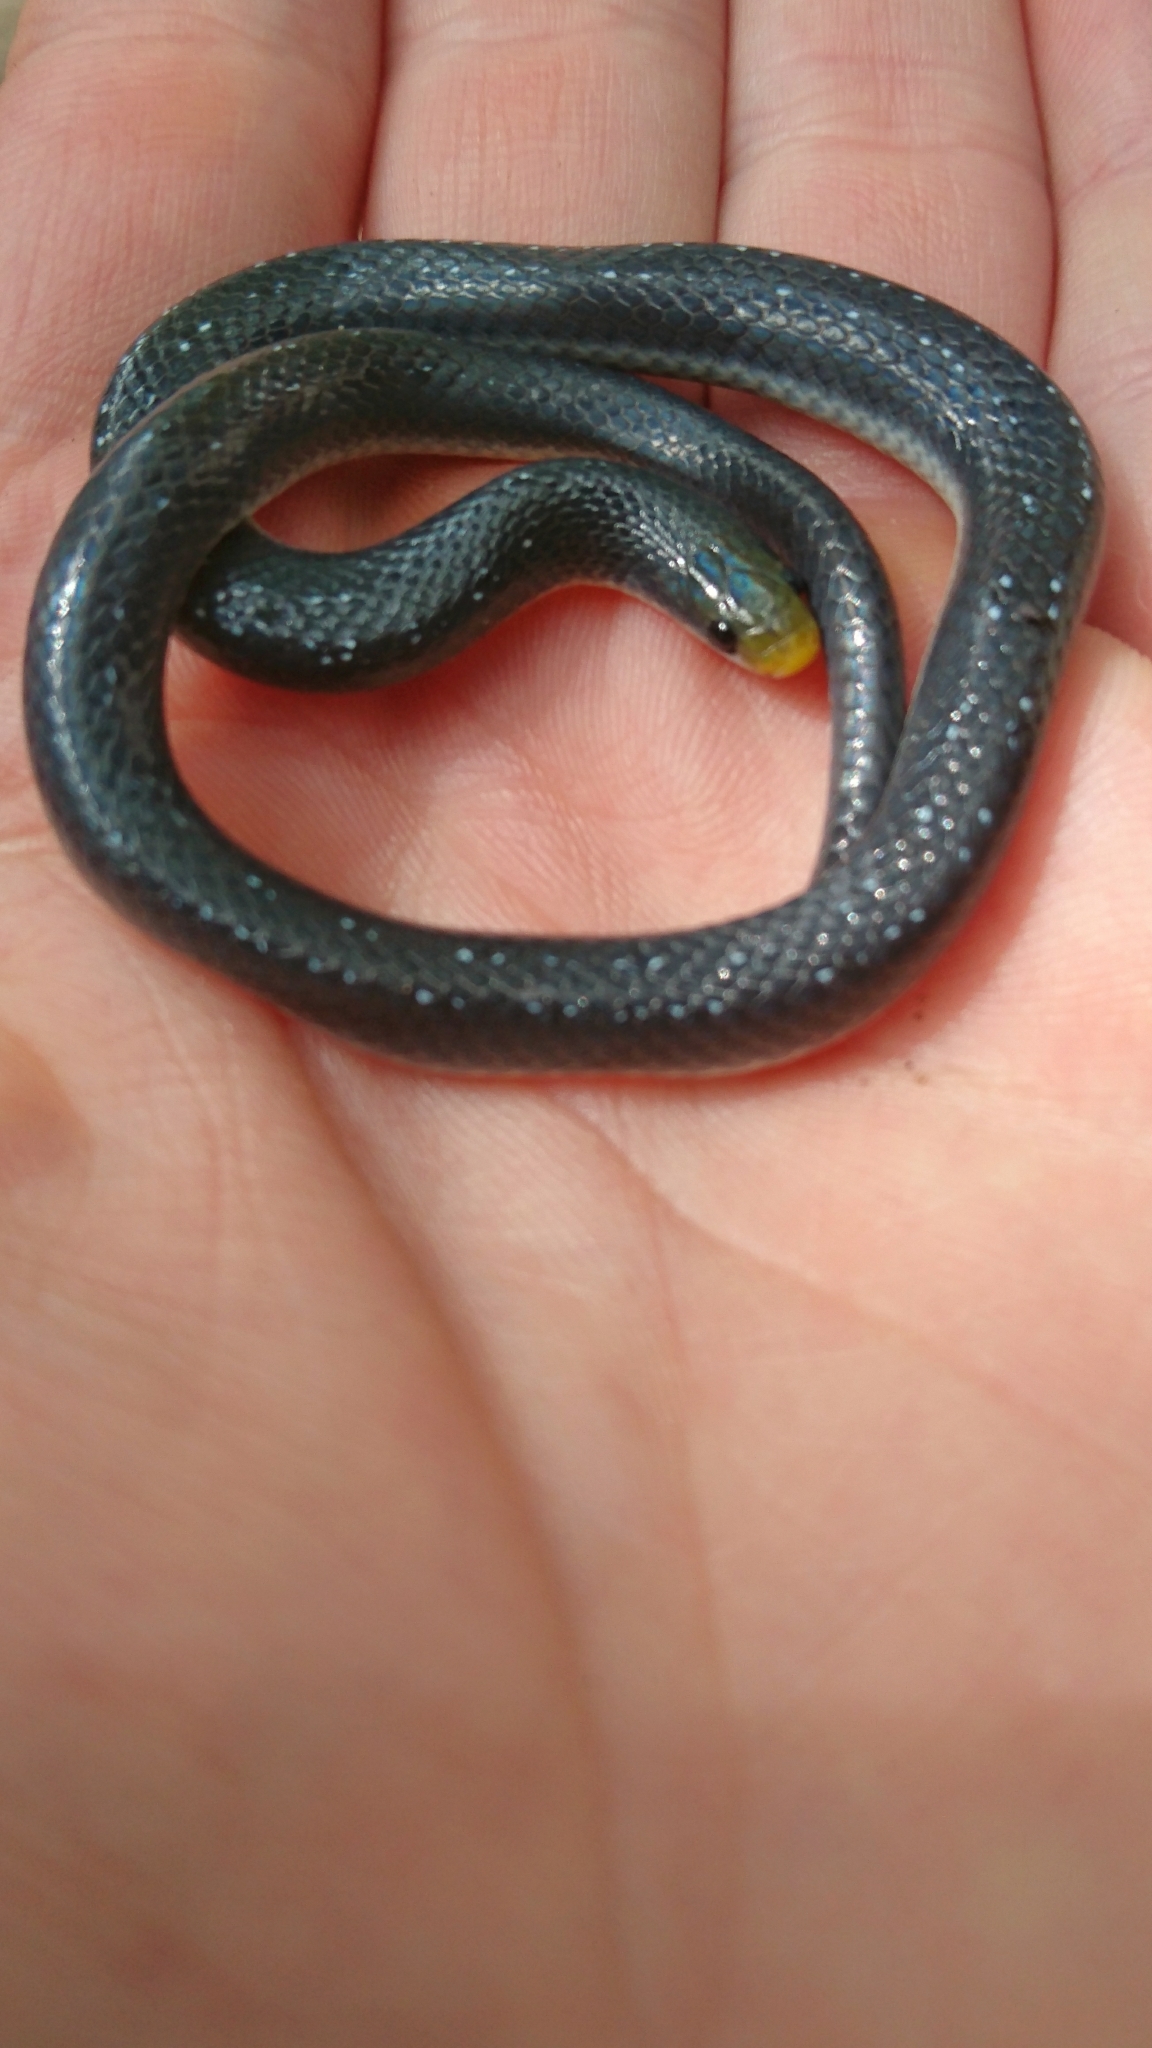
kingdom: Animalia
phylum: Chordata
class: Squamata
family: Prosymnidae
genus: Prosymna
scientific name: Prosymna stuhlmanni
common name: East african shovel-snout snake
